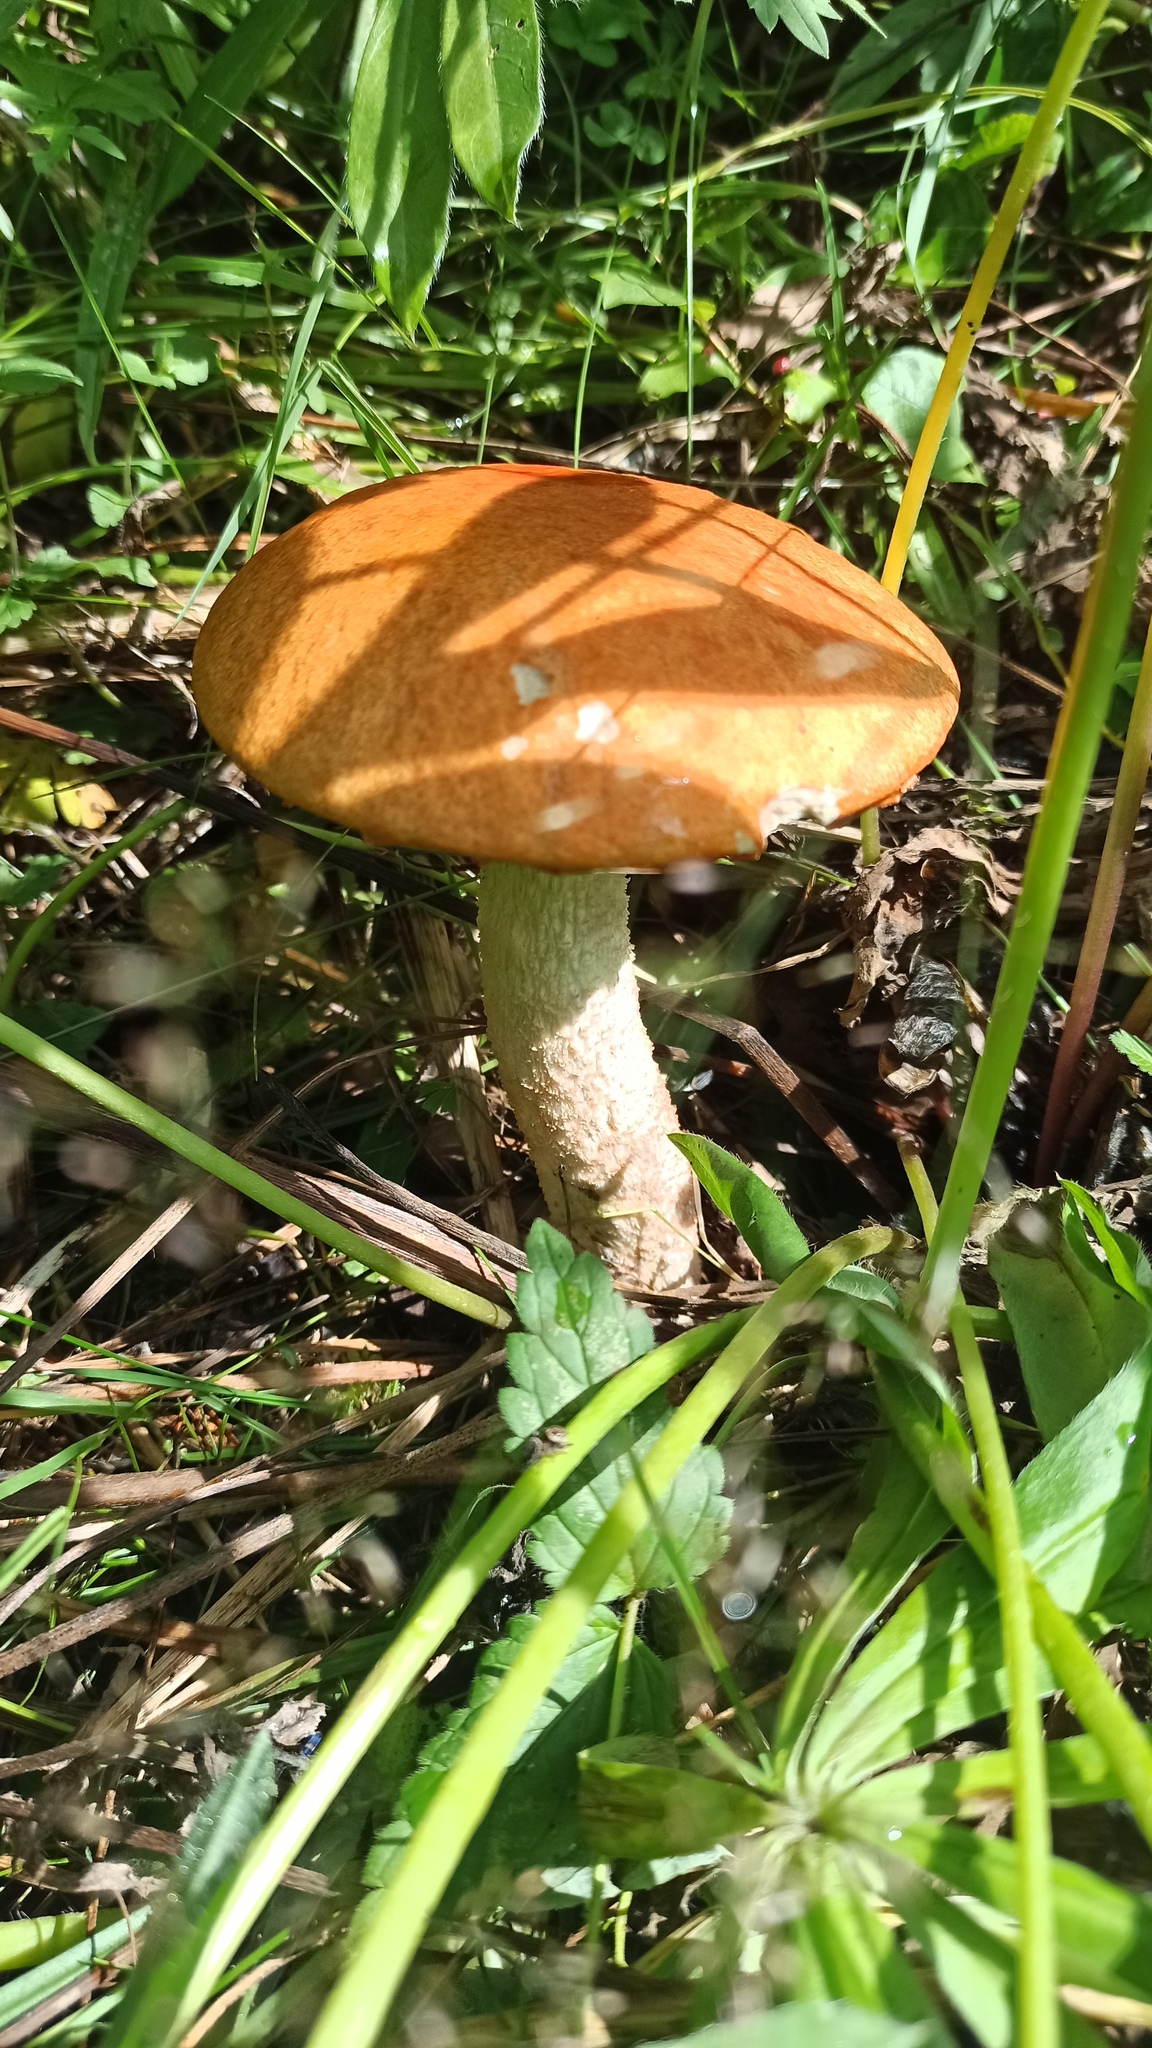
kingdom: Fungi
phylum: Basidiomycota
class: Agaricomycetes
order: Boletales
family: Boletaceae
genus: Leccinum
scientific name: Leccinum albostipitatum
